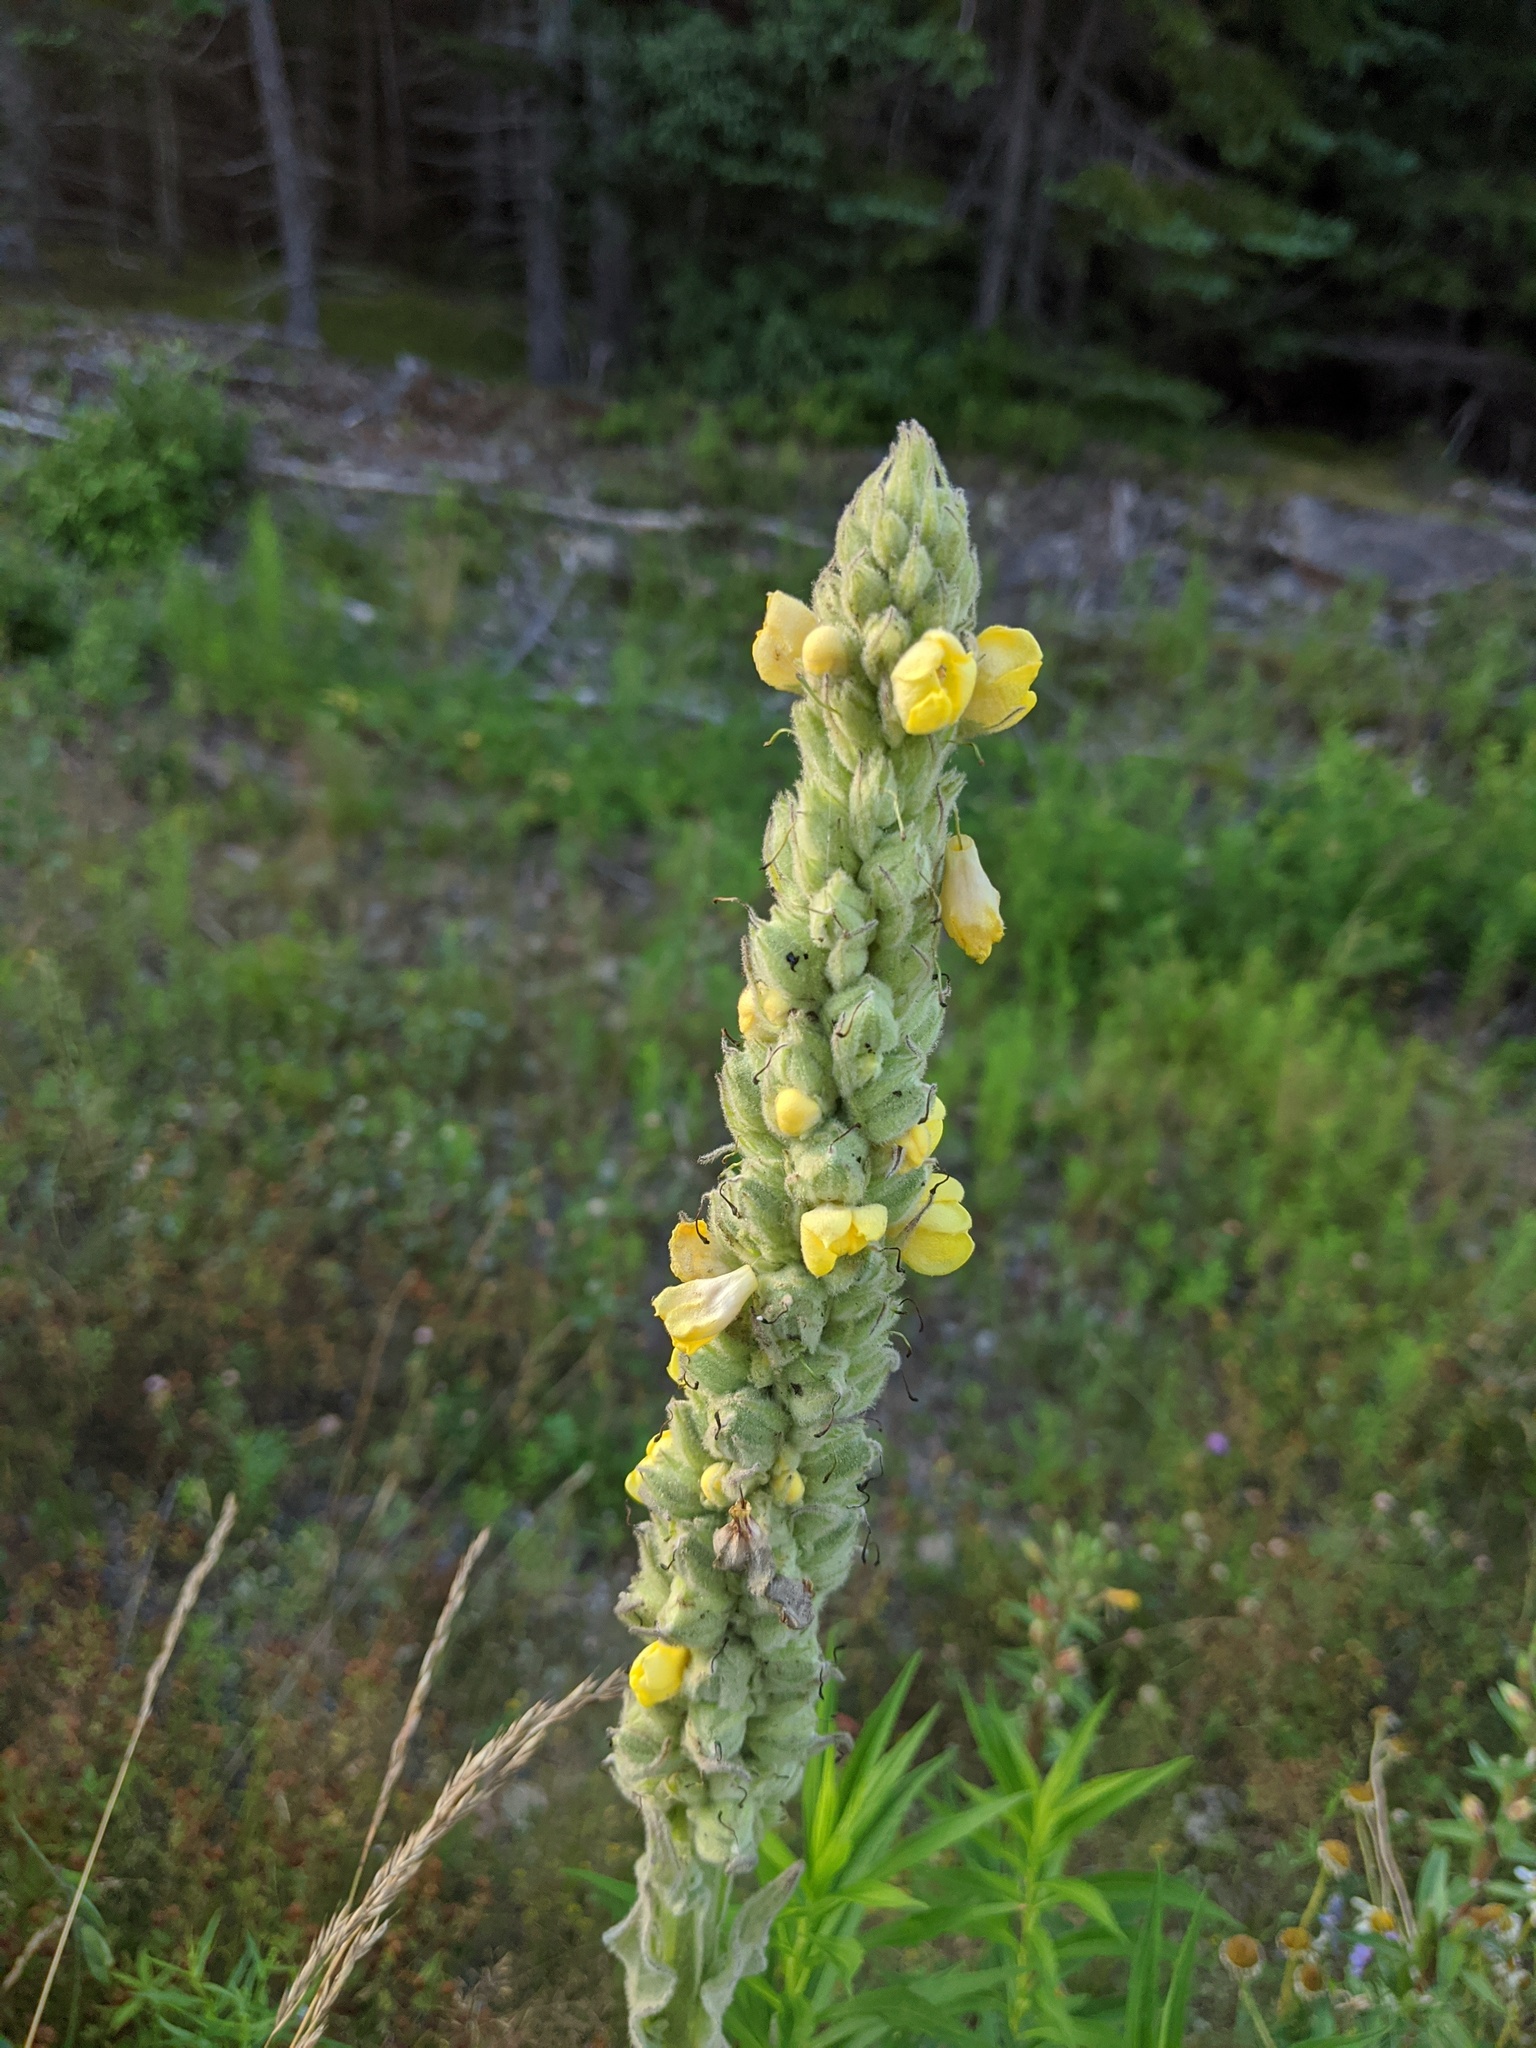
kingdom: Plantae
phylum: Tracheophyta
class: Magnoliopsida
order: Lamiales
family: Scrophulariaceae
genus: Verbascum
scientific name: Verbascum thapsus
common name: Common mullein
